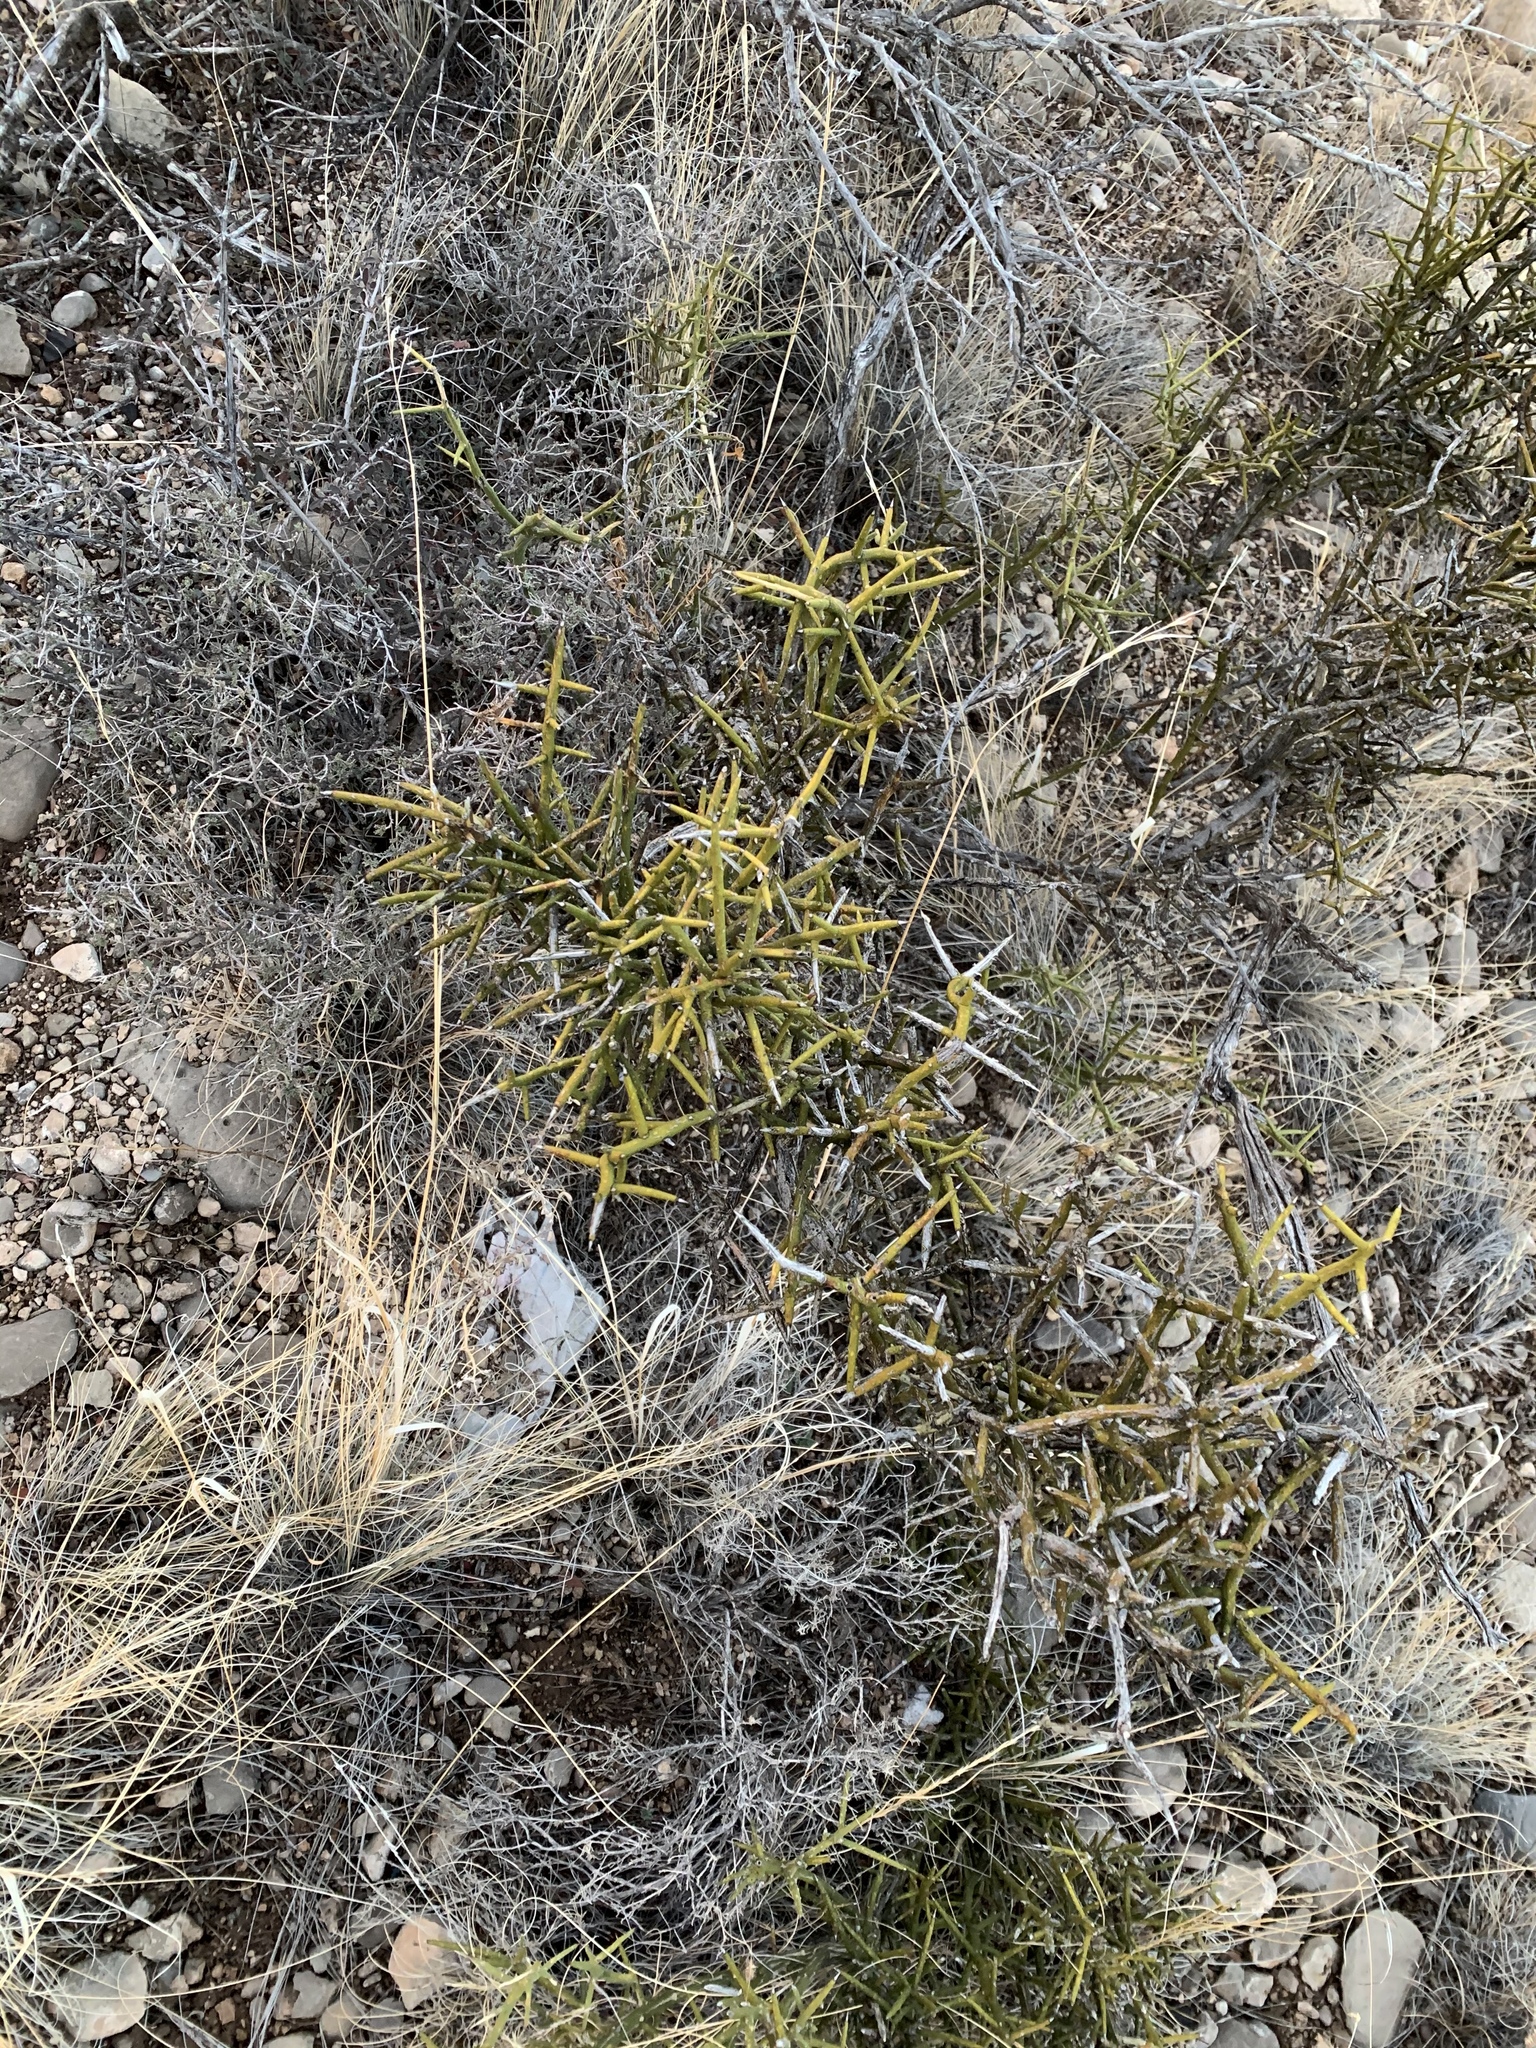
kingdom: Plantae
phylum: Tracheophyta
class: Magnoliopsida
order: Brassicales
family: Koeberliniaceae
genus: Koeberlinia
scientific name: Koeberlinia spinosa
